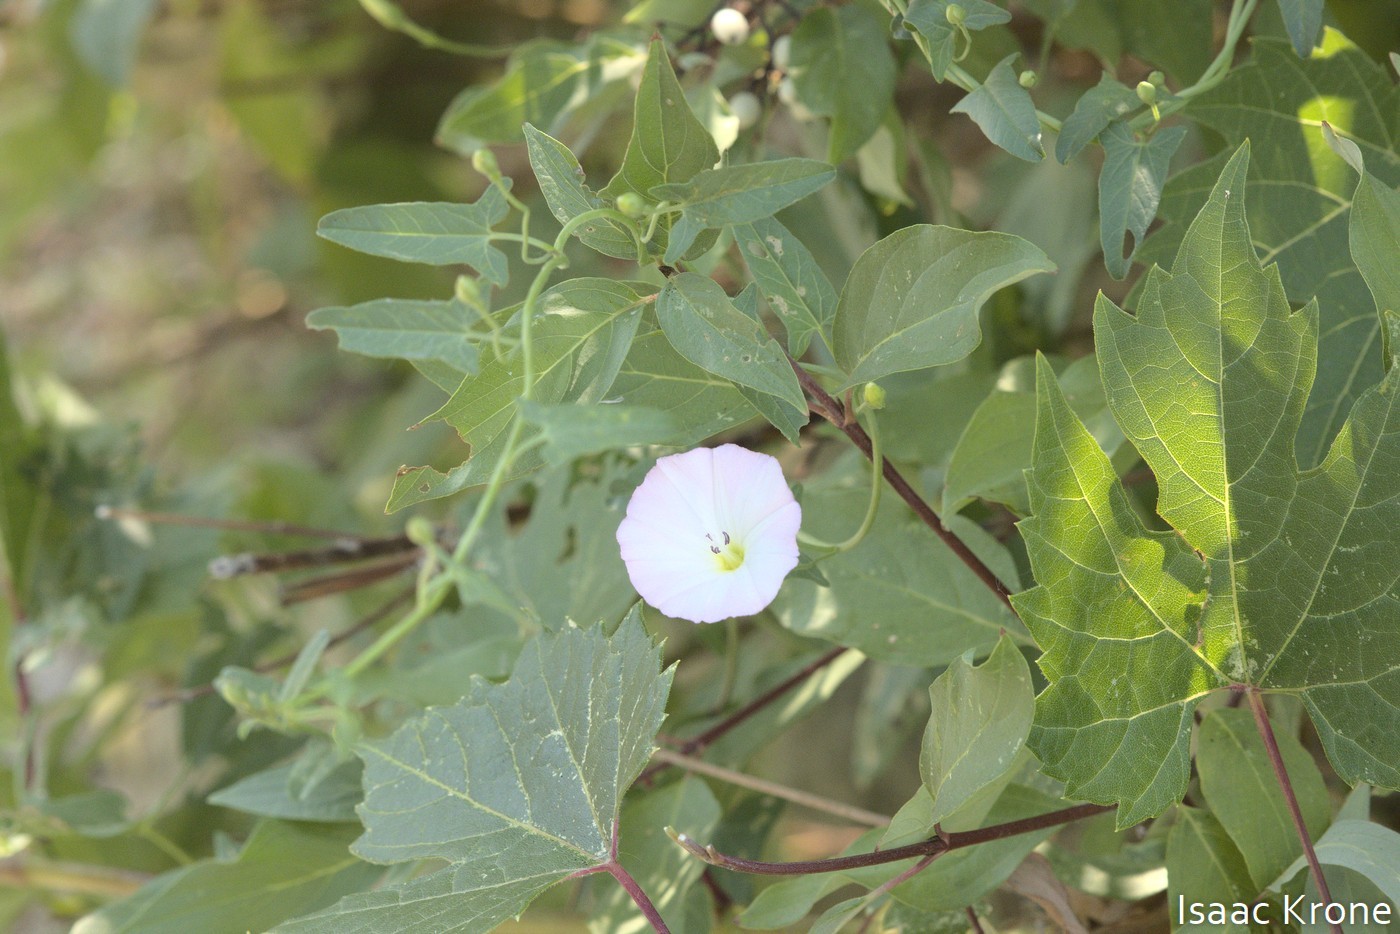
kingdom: Plantae
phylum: Tracheophyta
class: Magnoliopsida
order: Solanales
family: Convolvulaceae
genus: Convolvulus
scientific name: Convolvulus arvensis
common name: Field bindweed
